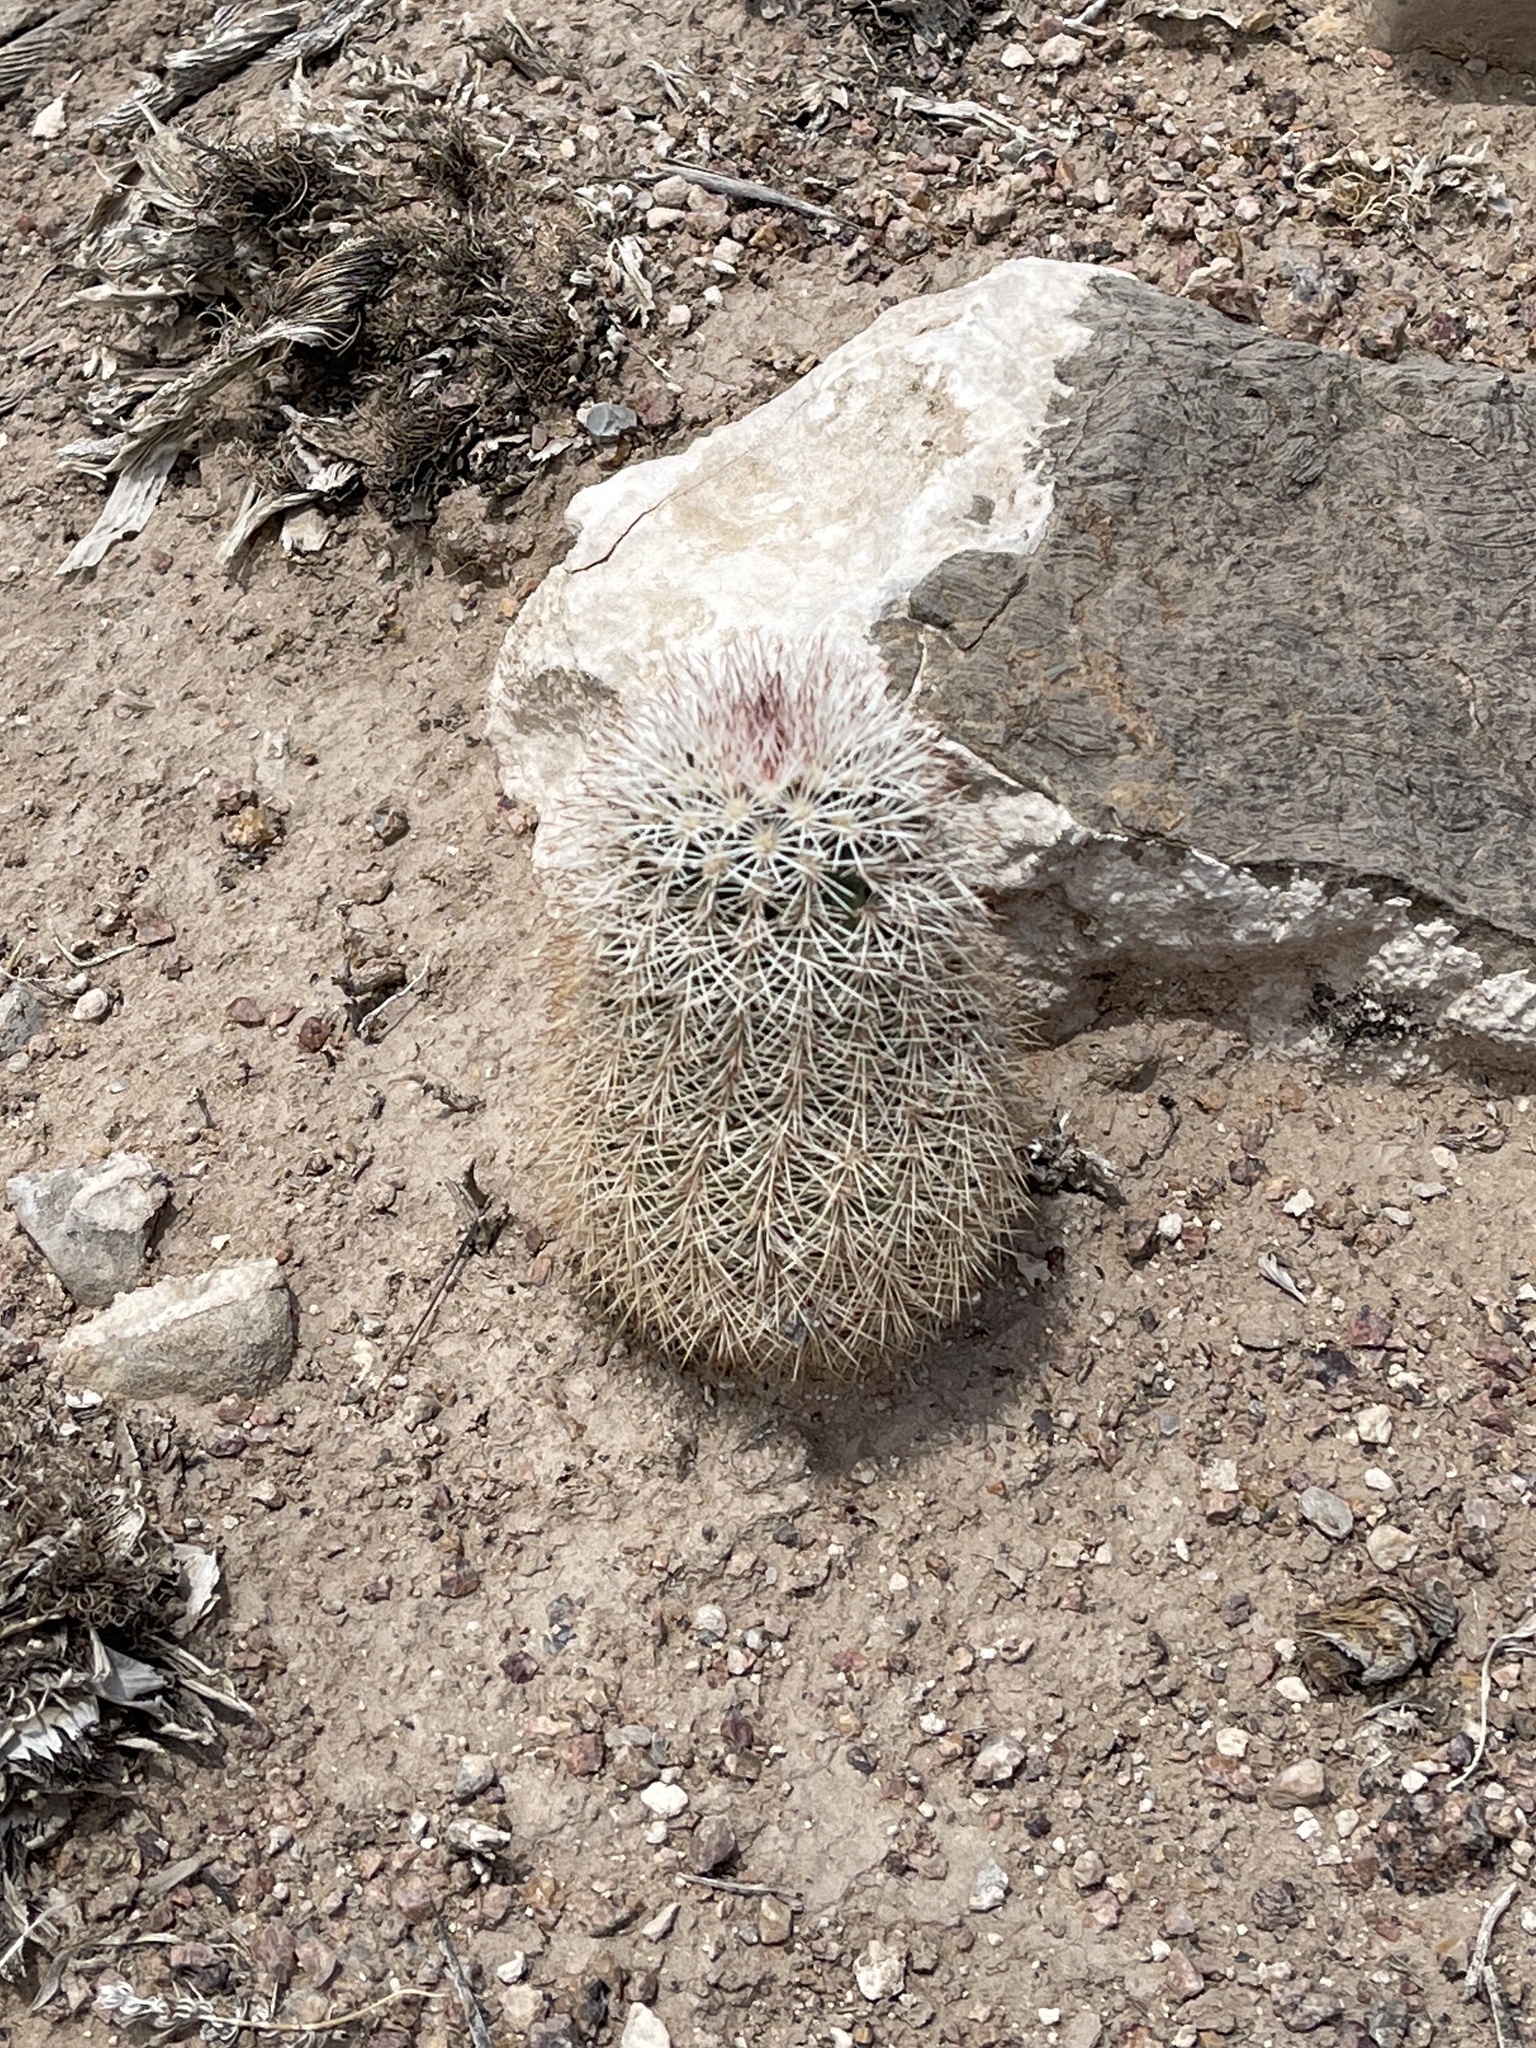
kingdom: Plantae
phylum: Tracheophyta
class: Magnoliopsida
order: Caryophyllales
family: Cactaceae
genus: Echinocereus
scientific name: Echinocereus dasyacanthus
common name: Spiny hedgehog cactus
